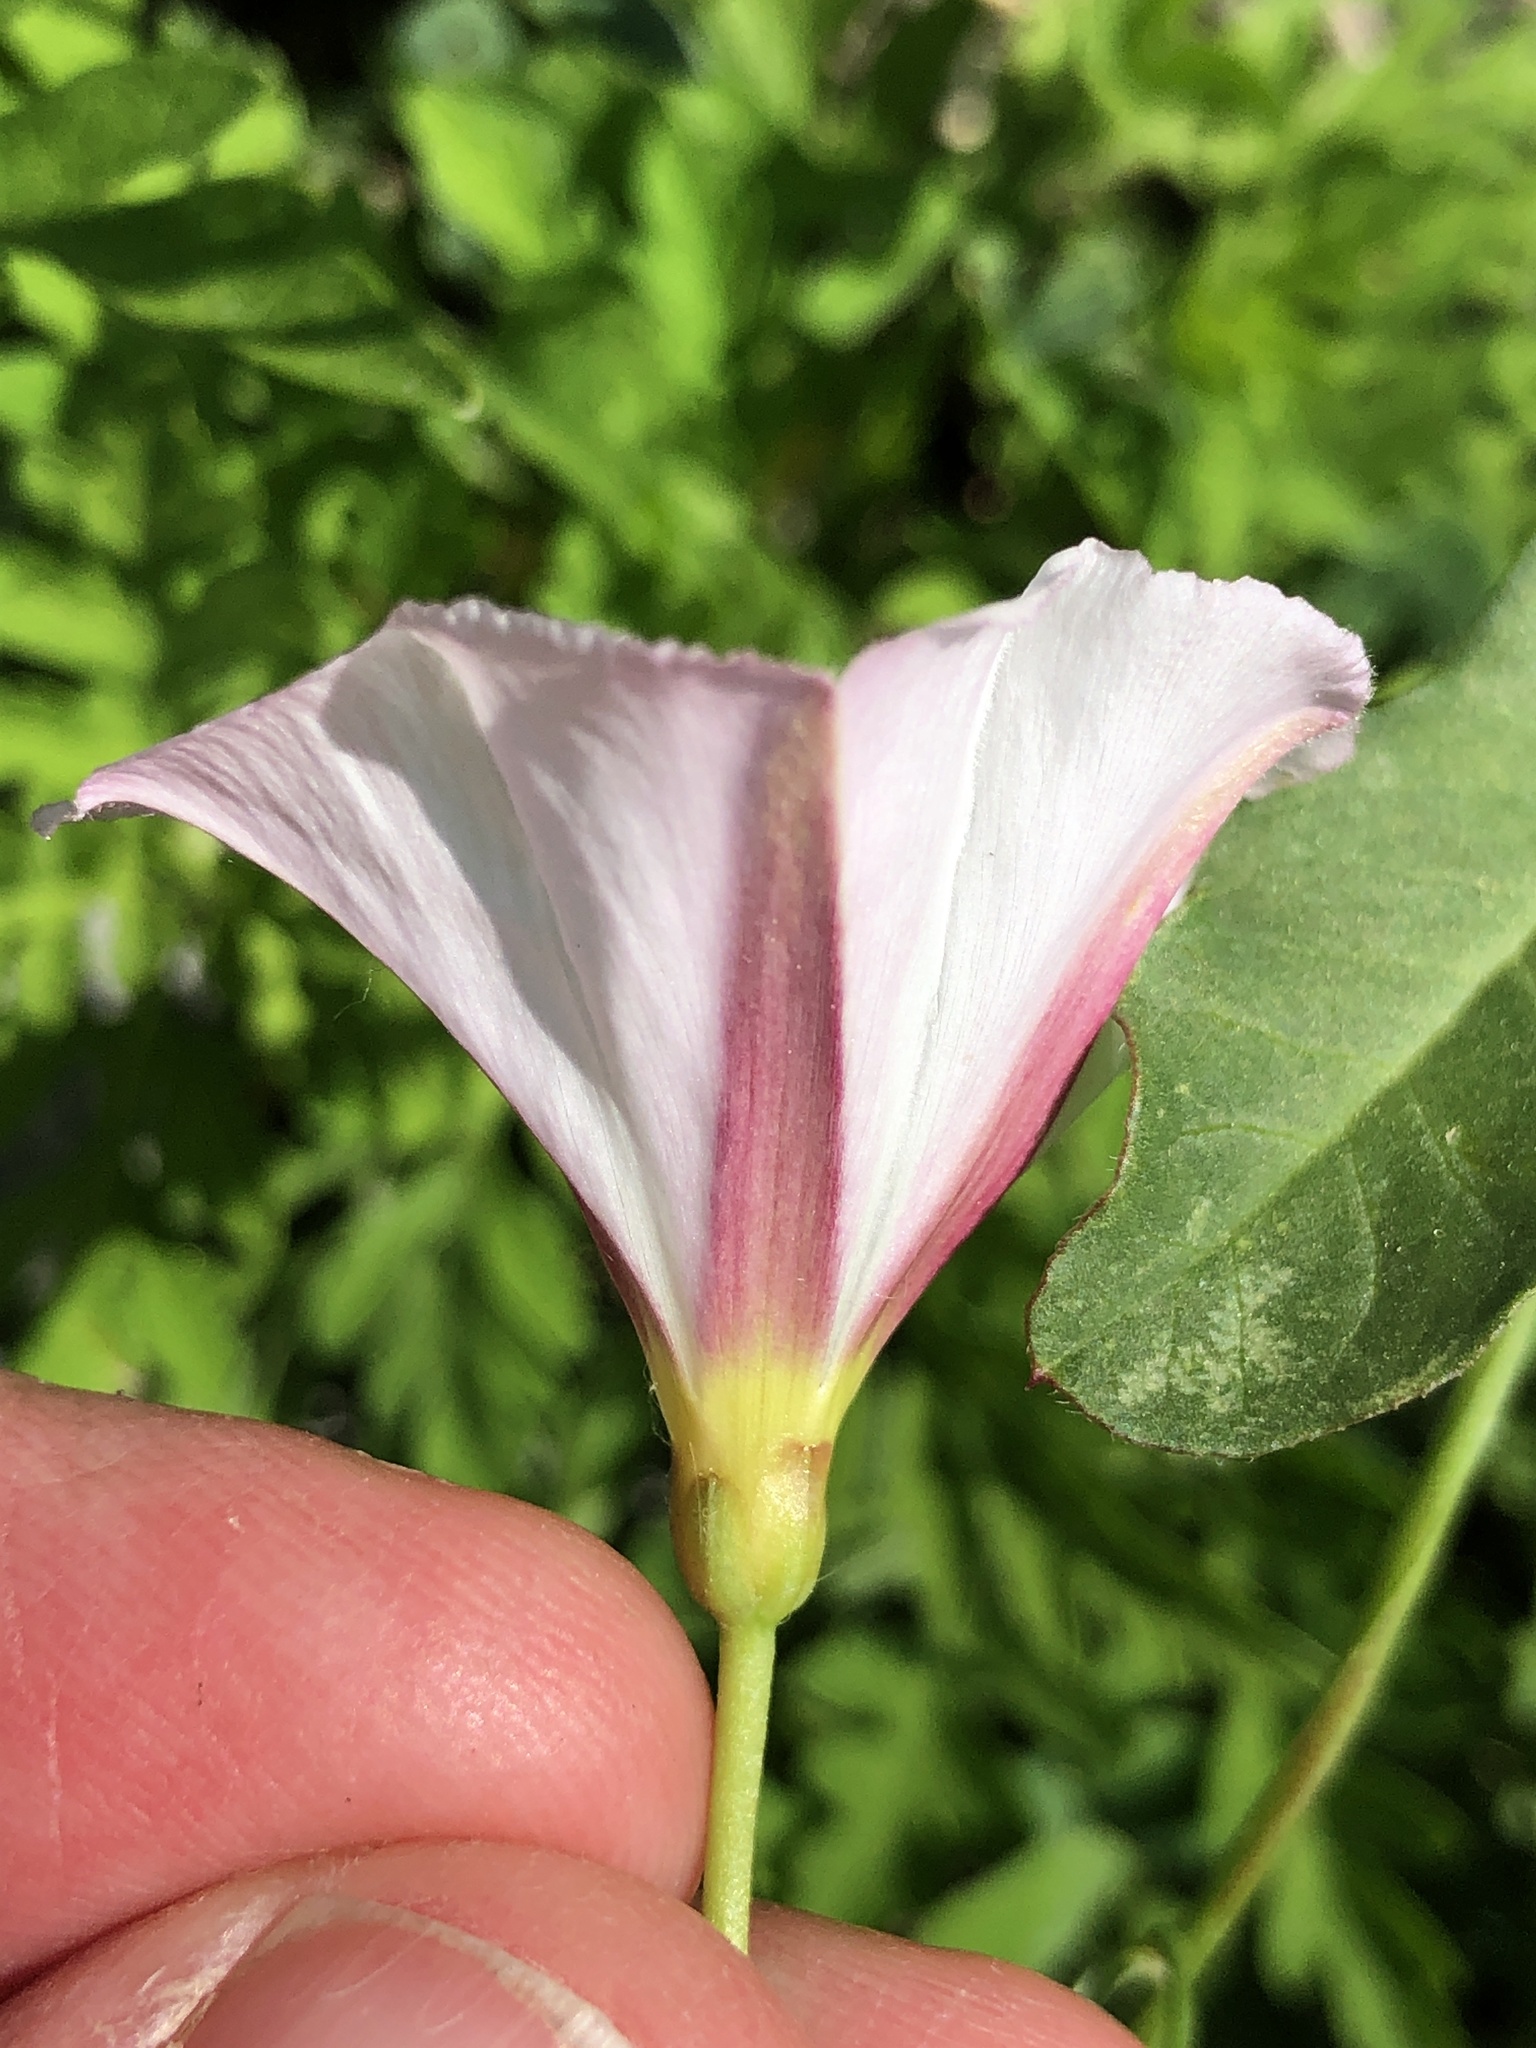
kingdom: Plantae
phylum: Tracheophyta
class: Magnoliopsida
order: Solanales
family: Convolvulaceae
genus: Convolvulus
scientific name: Convolvulus arvensis
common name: Field bindweed
